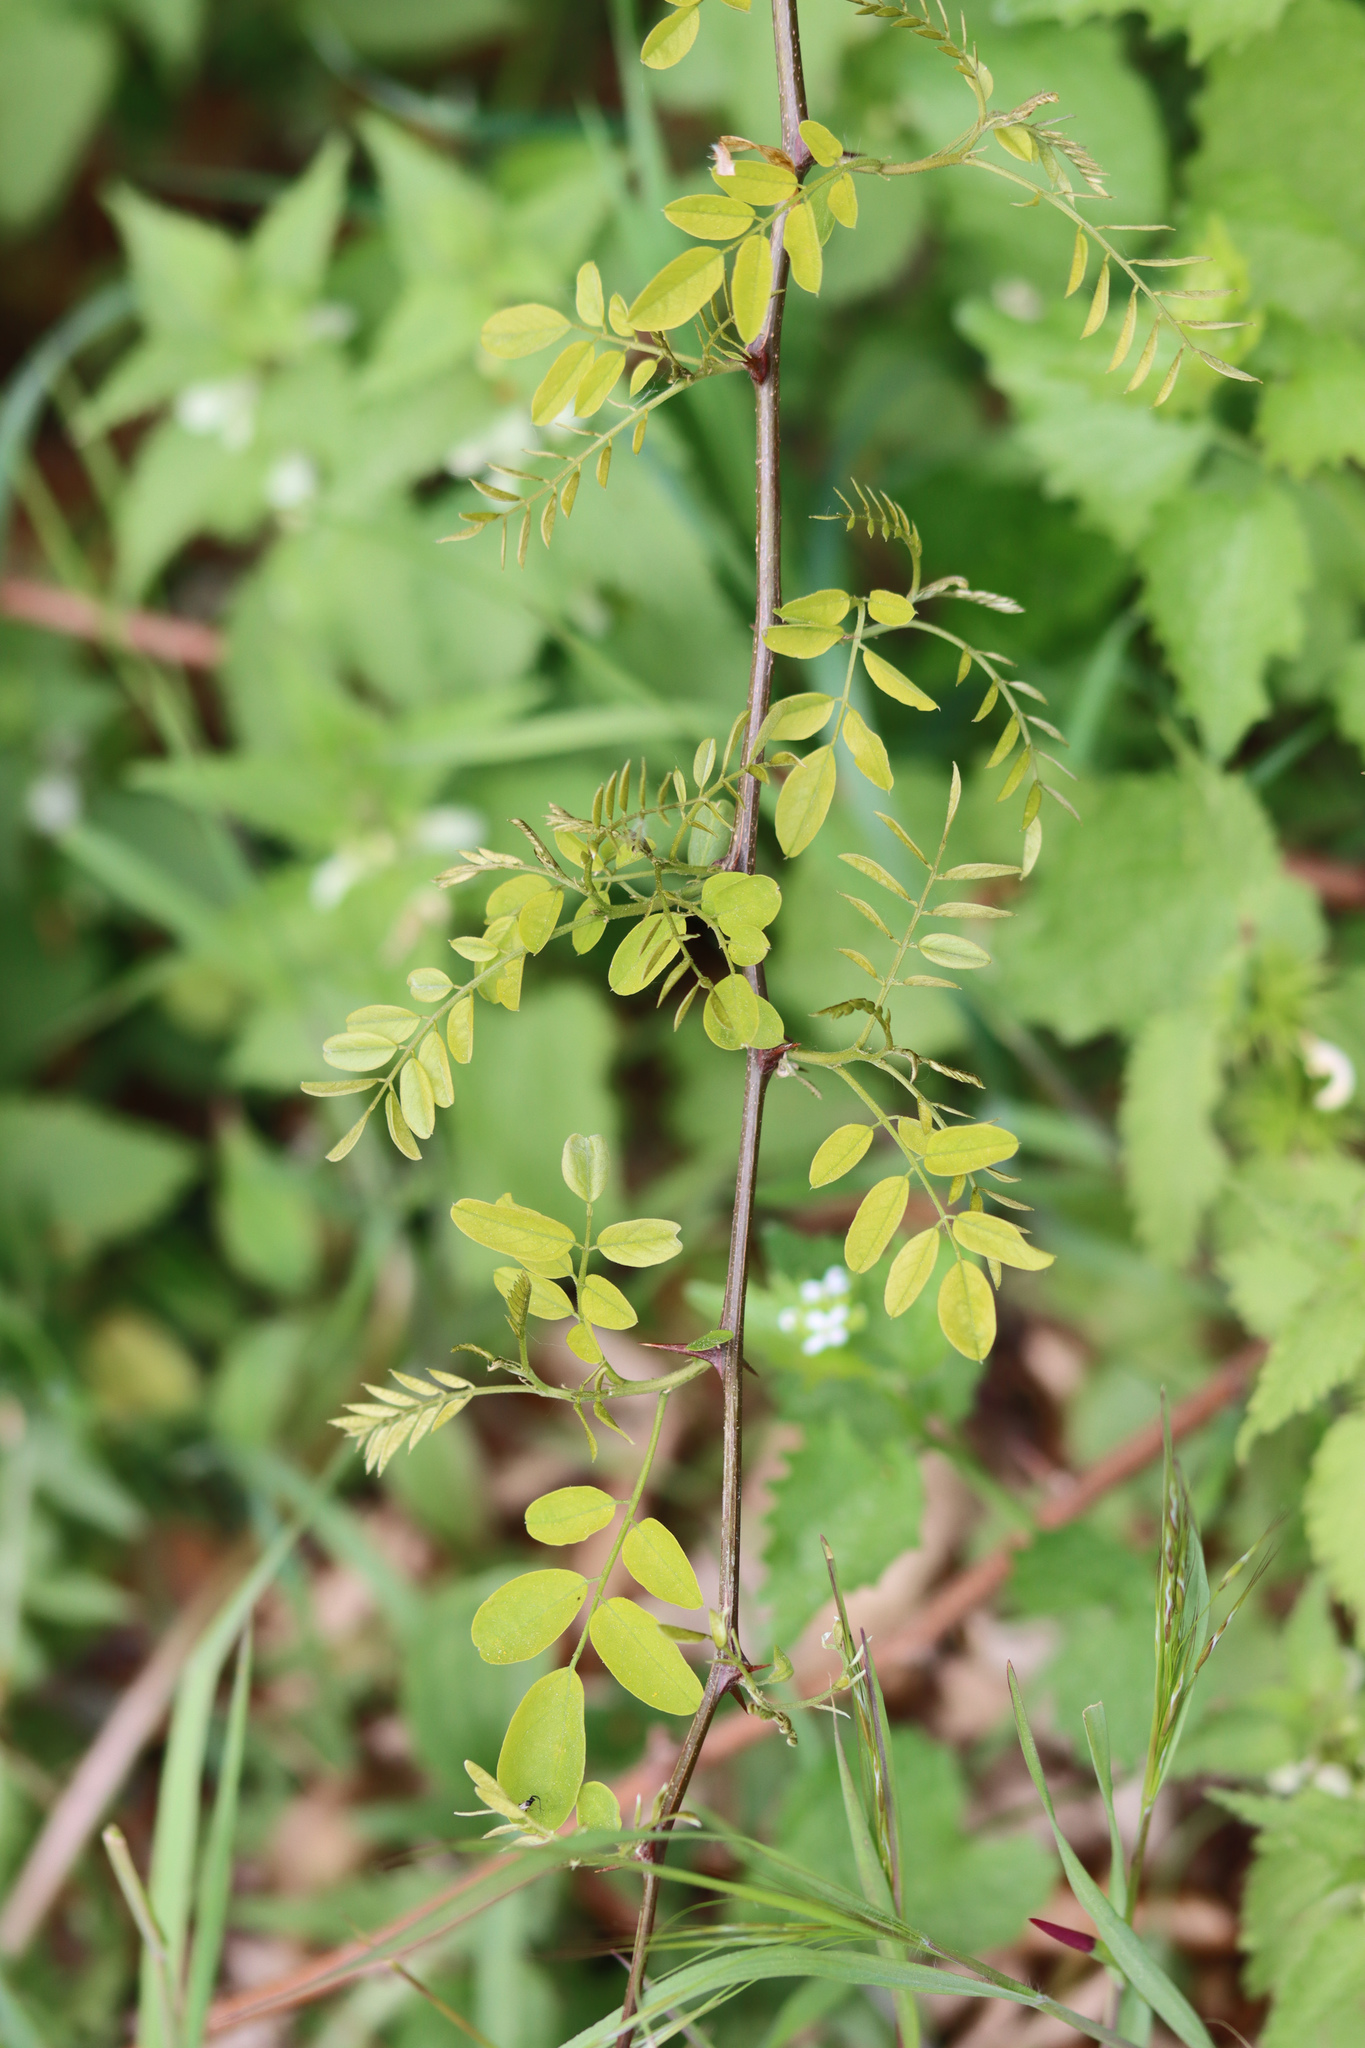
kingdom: Plantae
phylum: Tracheophyta
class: Magnoliopsida
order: Fabales
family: Fabaceae
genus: Robinia
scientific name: Robinia pseudoacacia
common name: Black locust
